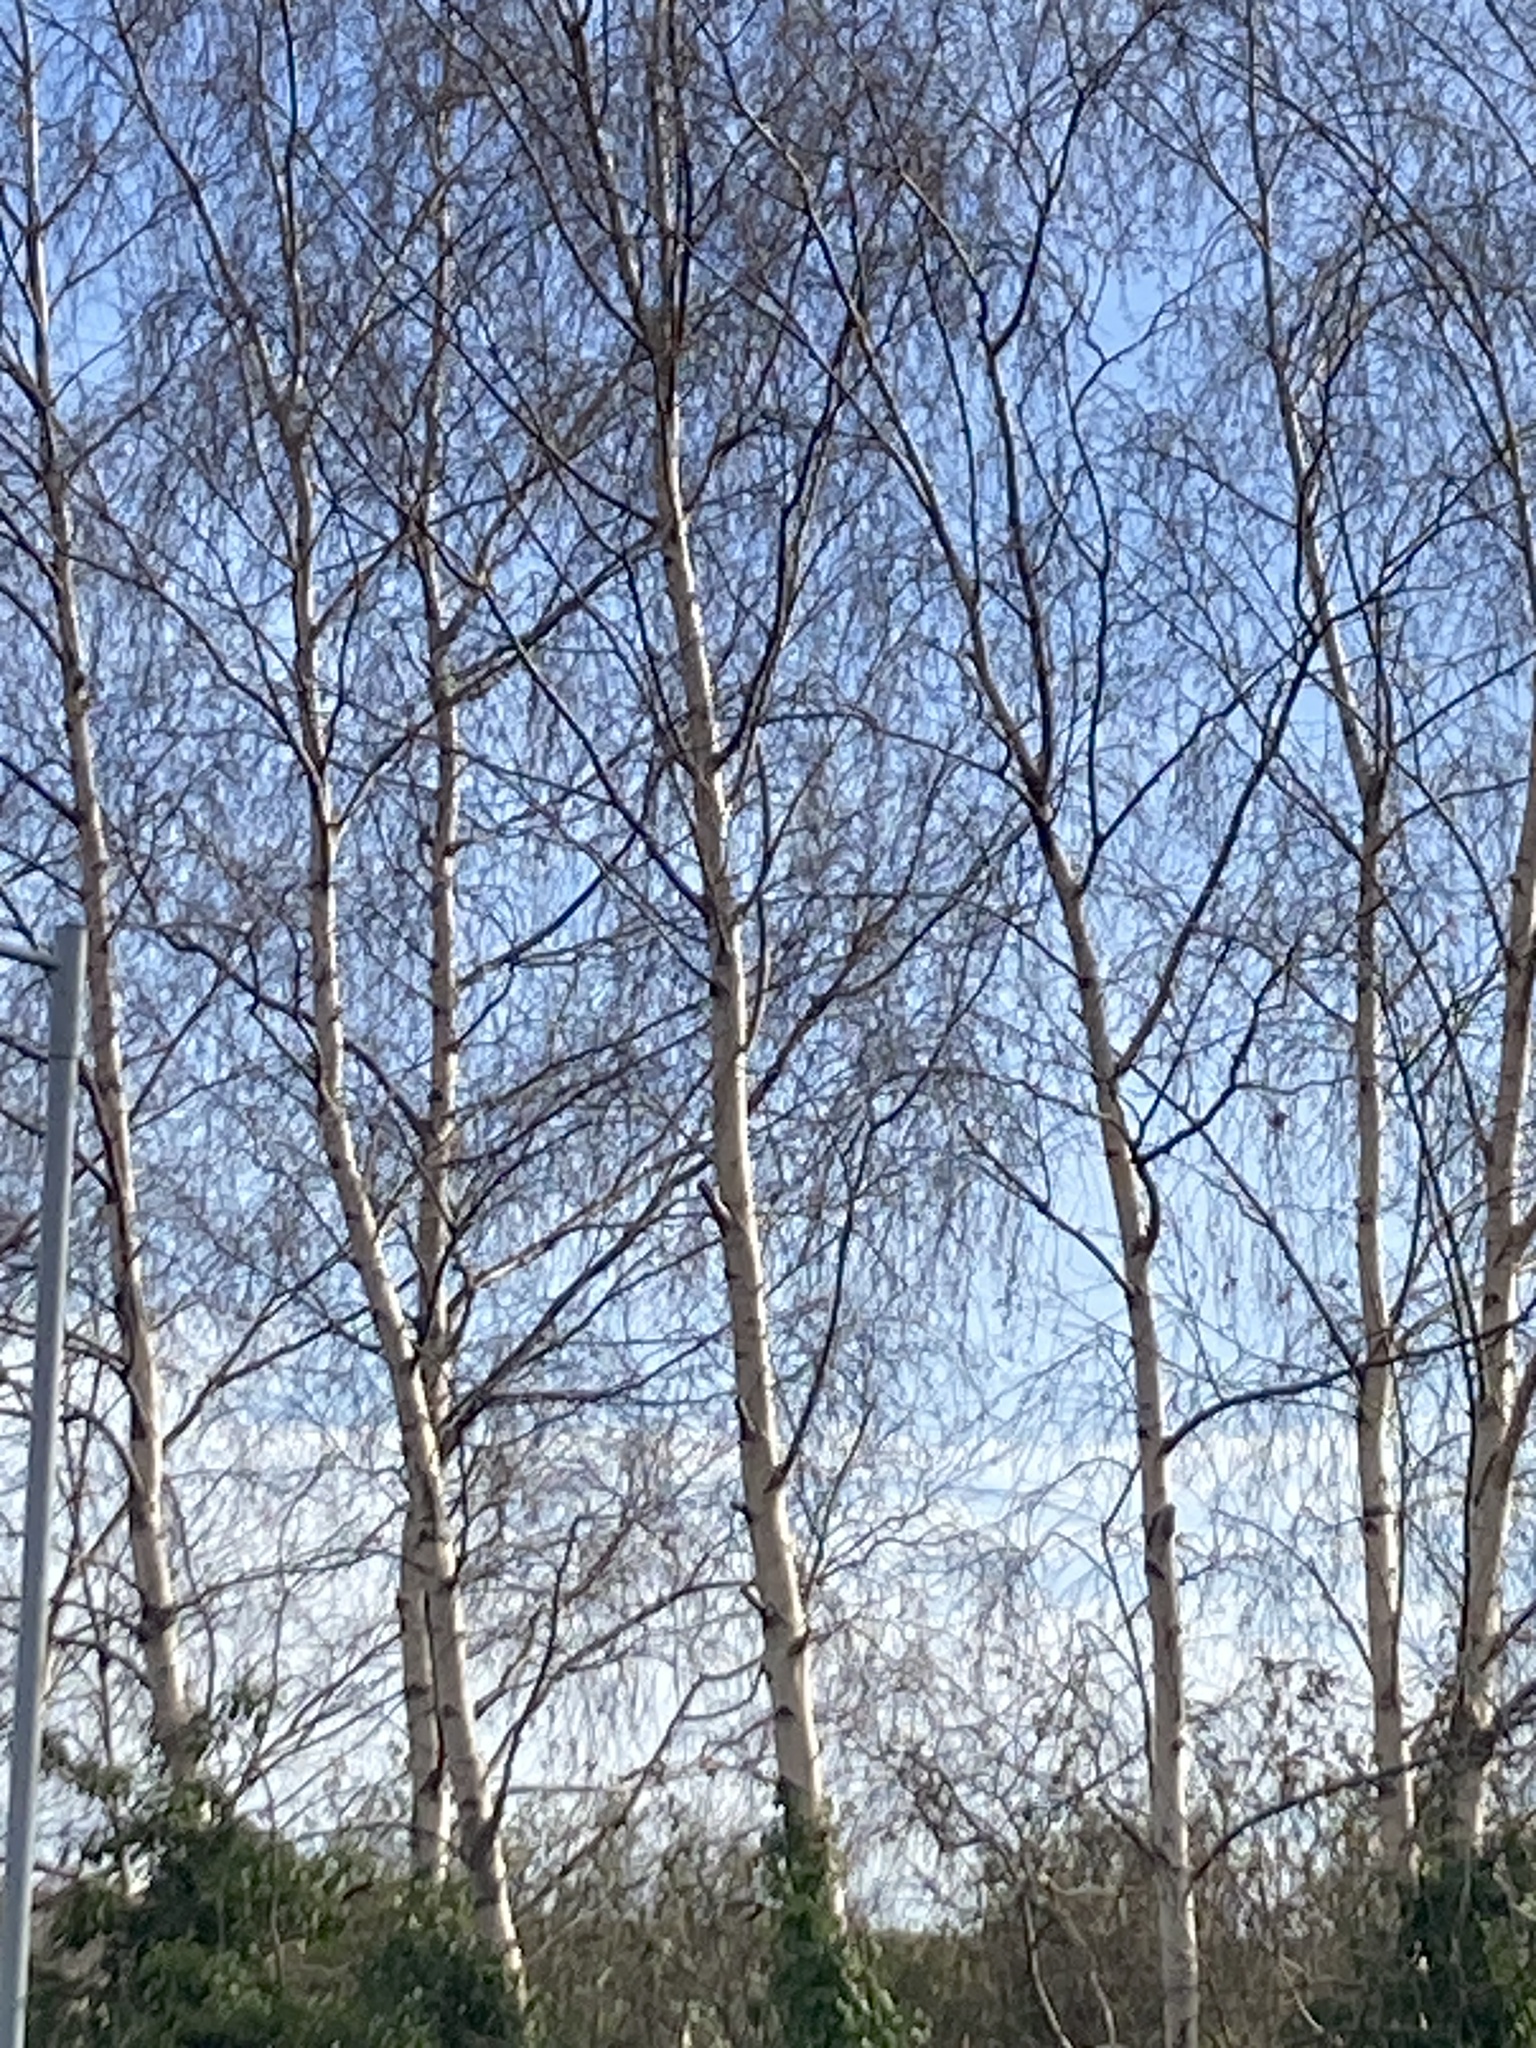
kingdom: Plantae
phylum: Tracheophyta
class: Magnoliopsida
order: Fagales
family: Betulaceae
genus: Betula
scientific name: Betula pendula
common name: Silver birch
